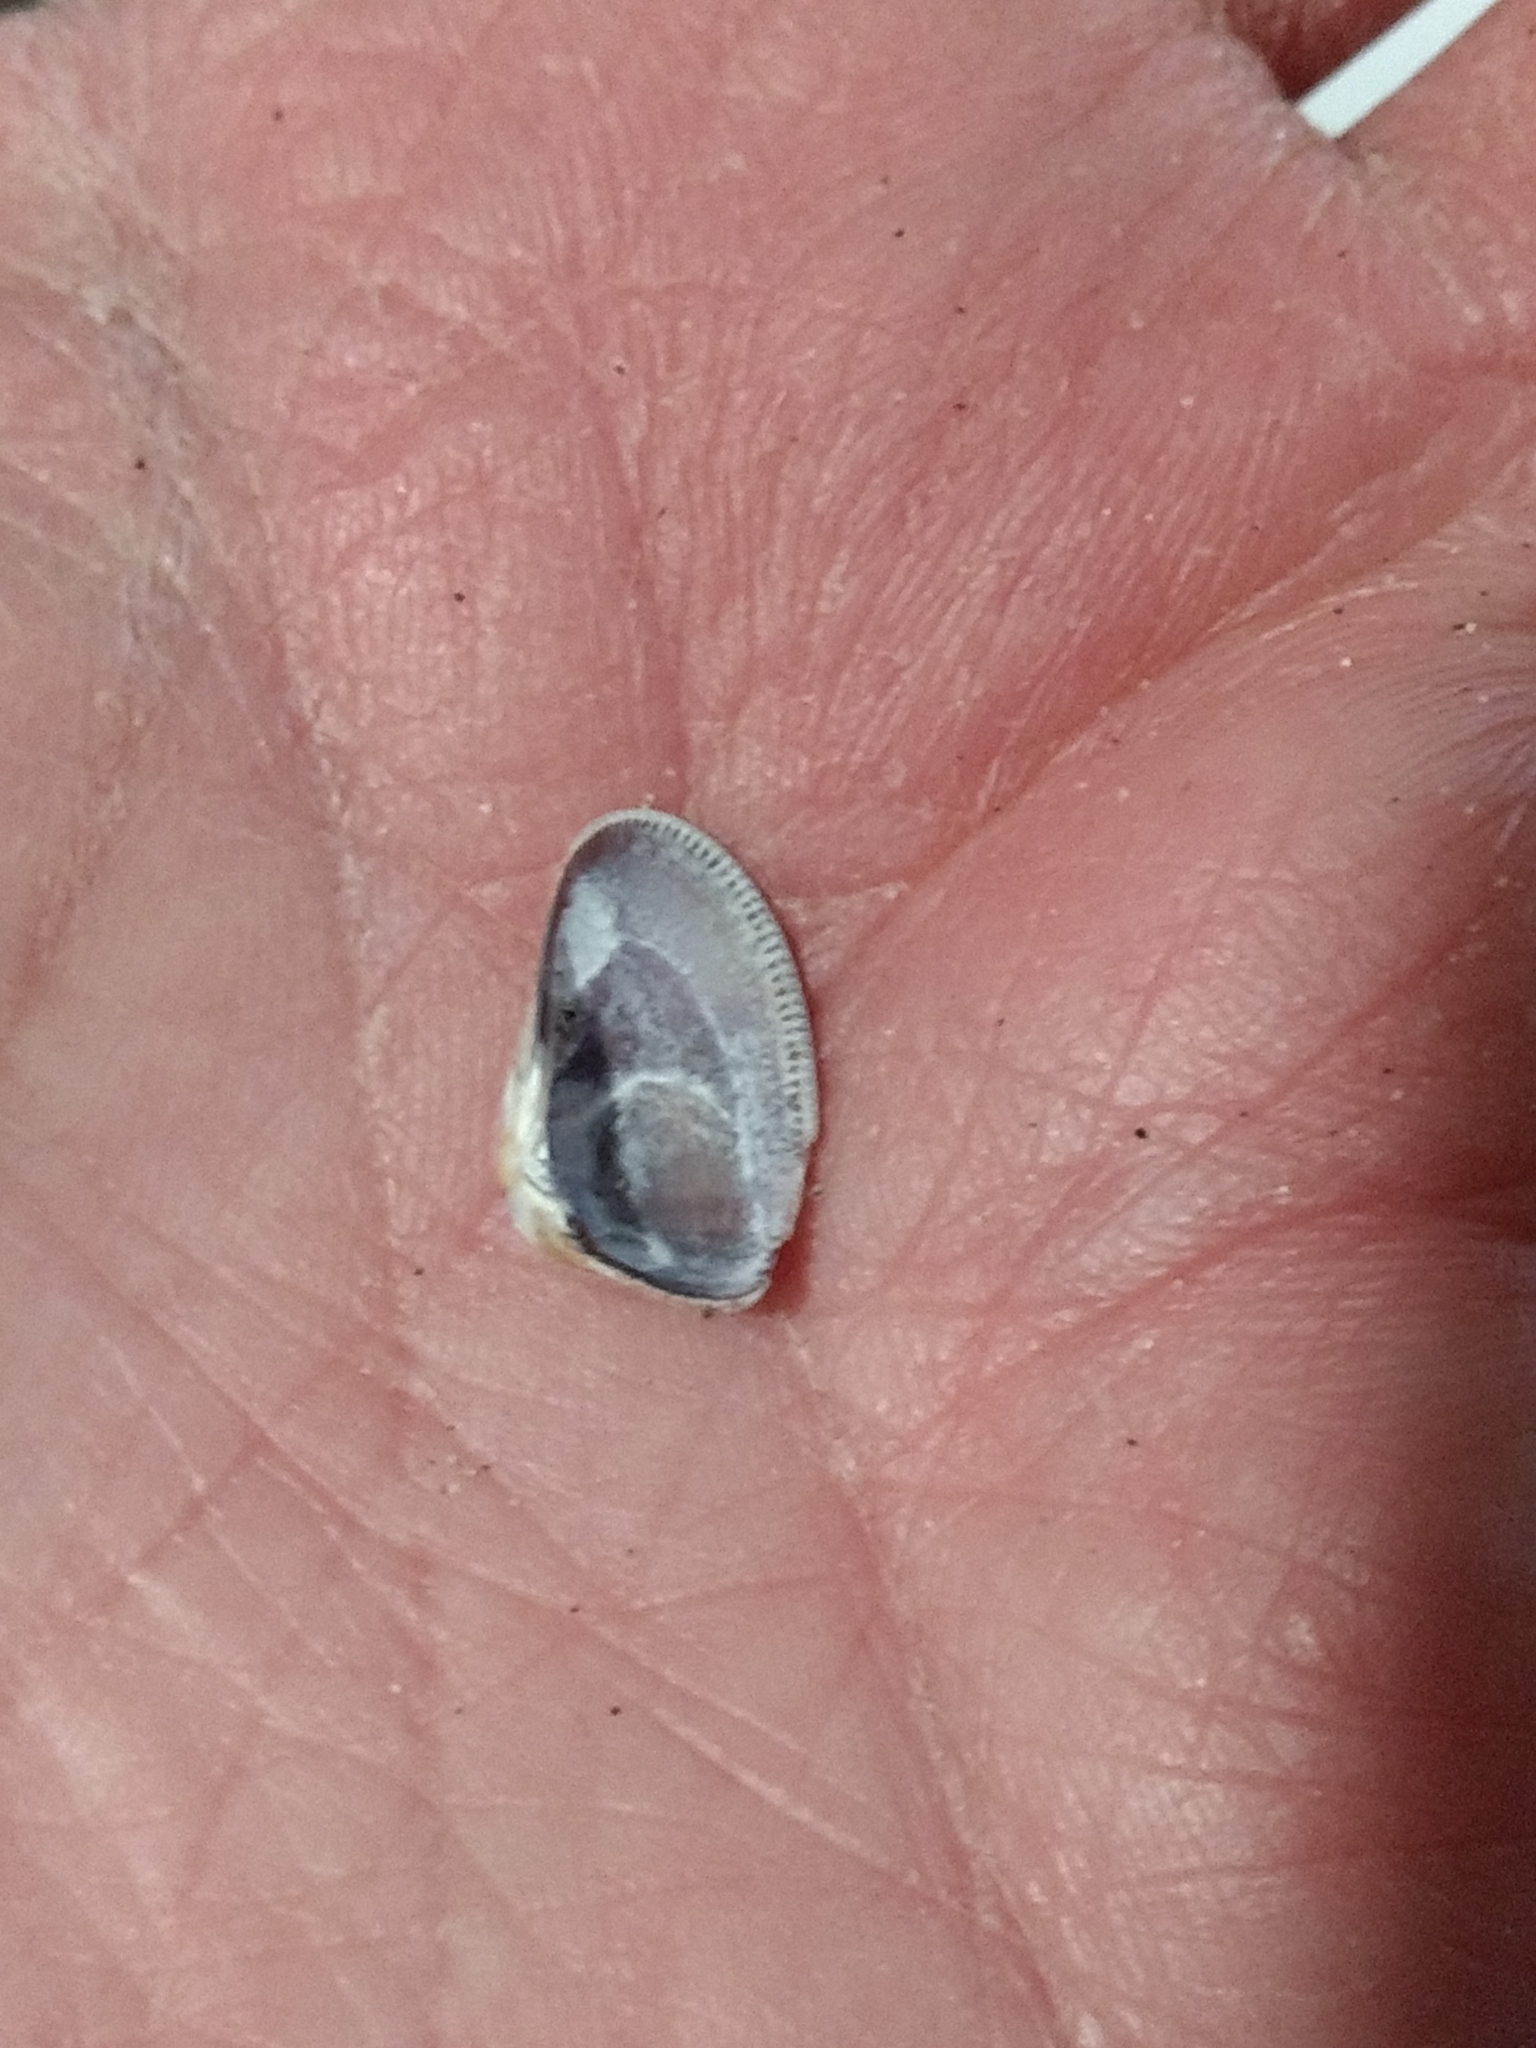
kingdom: Animalia
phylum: Mollusca
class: Bivalvia
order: Cardiida
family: Donacidae
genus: Donax
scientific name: Donax gouldii
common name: Gould beanclam
